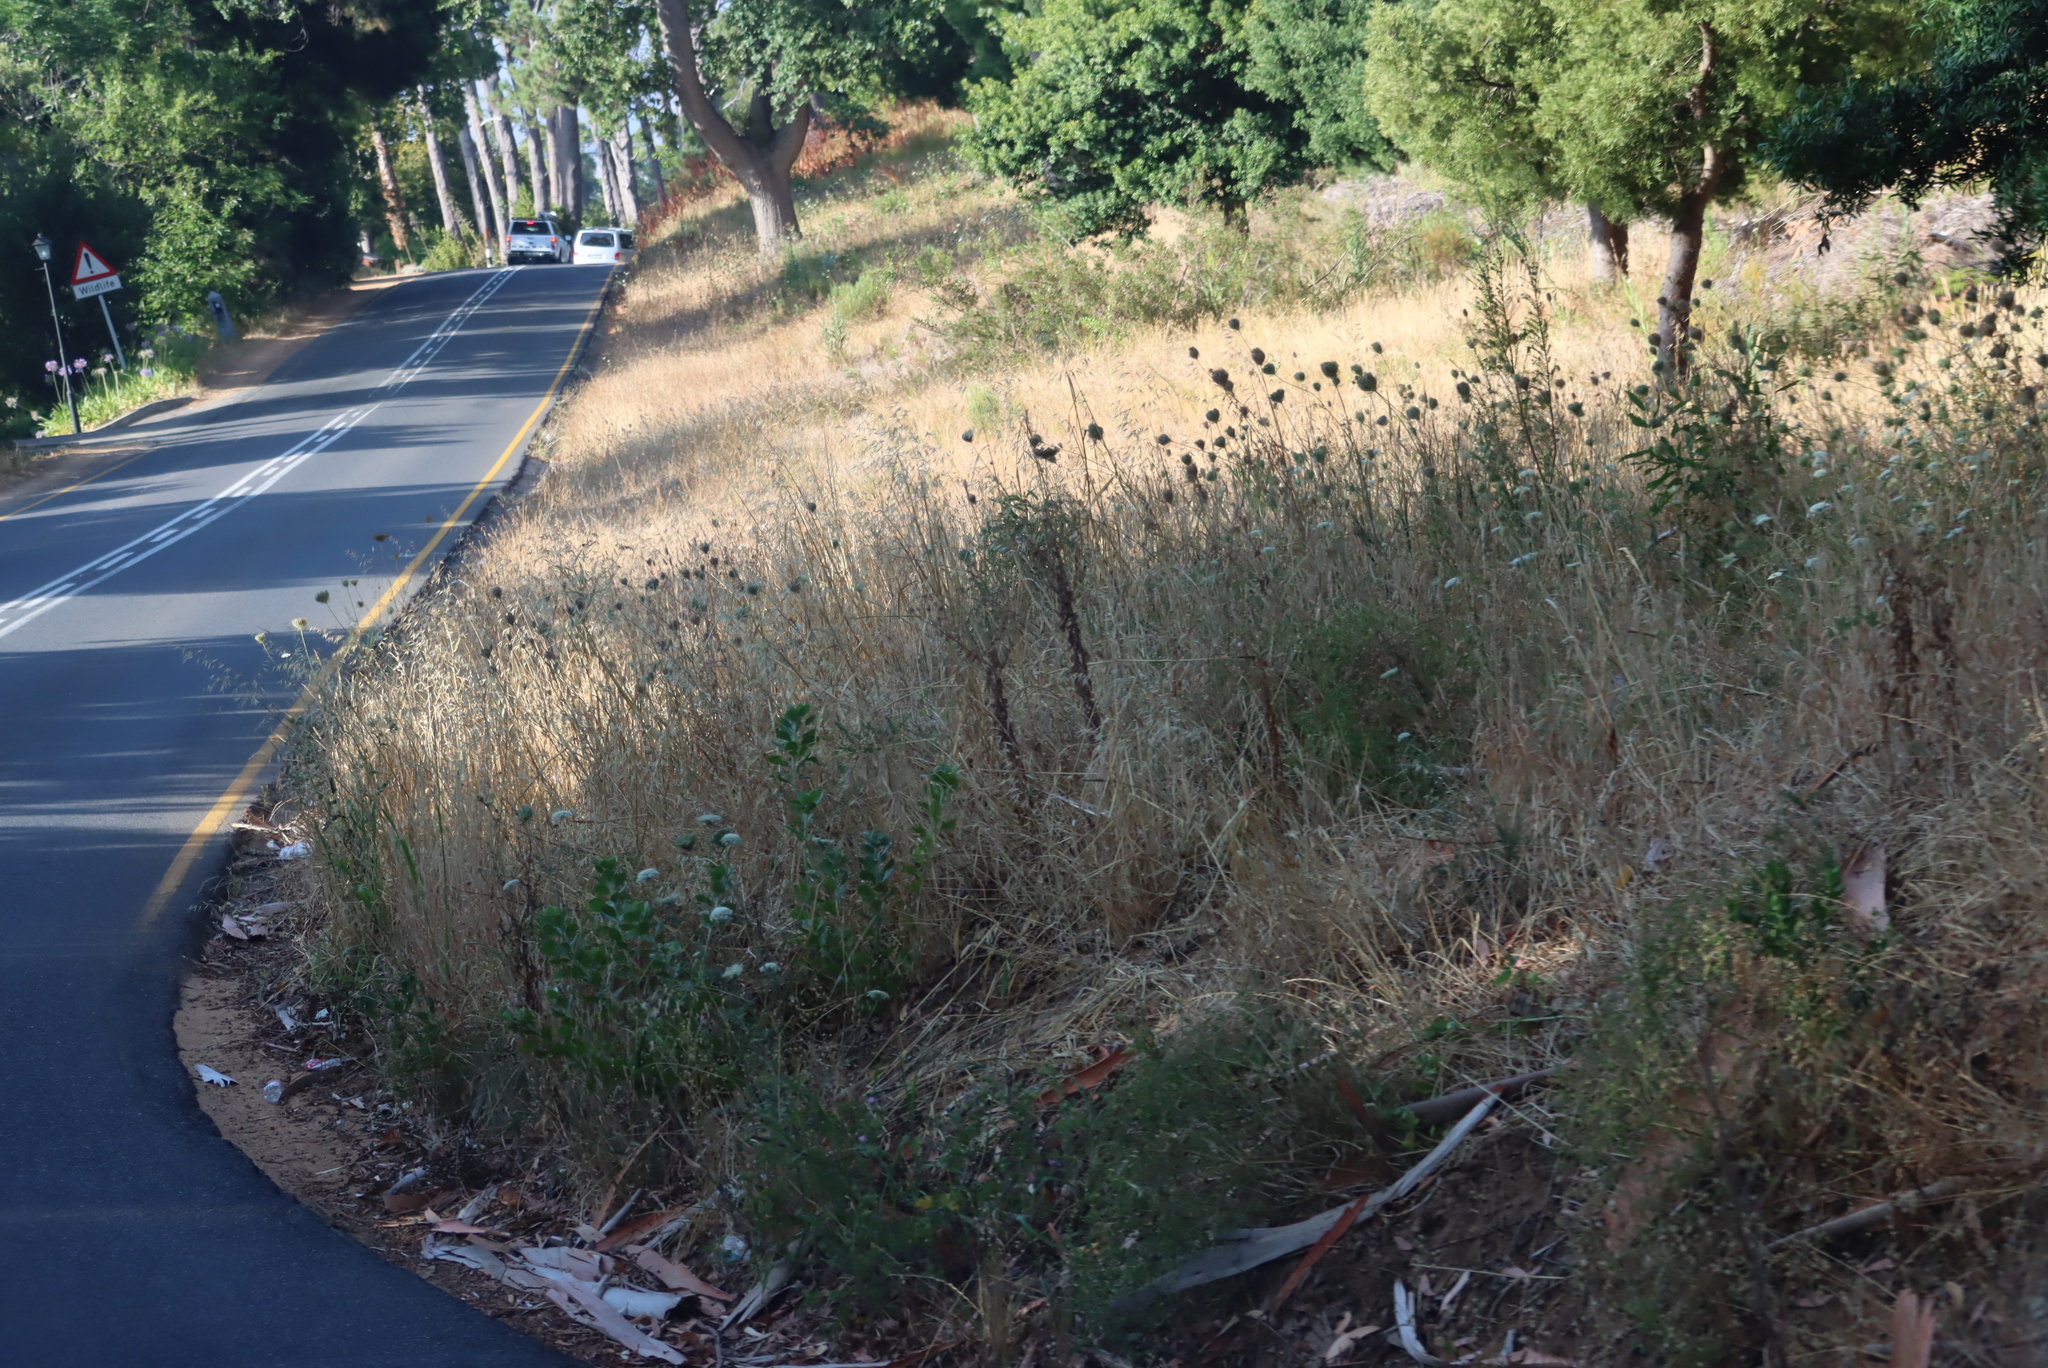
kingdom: Plantae
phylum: Tracheophyta
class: Magnoliopsida
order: Apiales
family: Apiaceae
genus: Daucus
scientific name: Daucus carota
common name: Wild carrot
